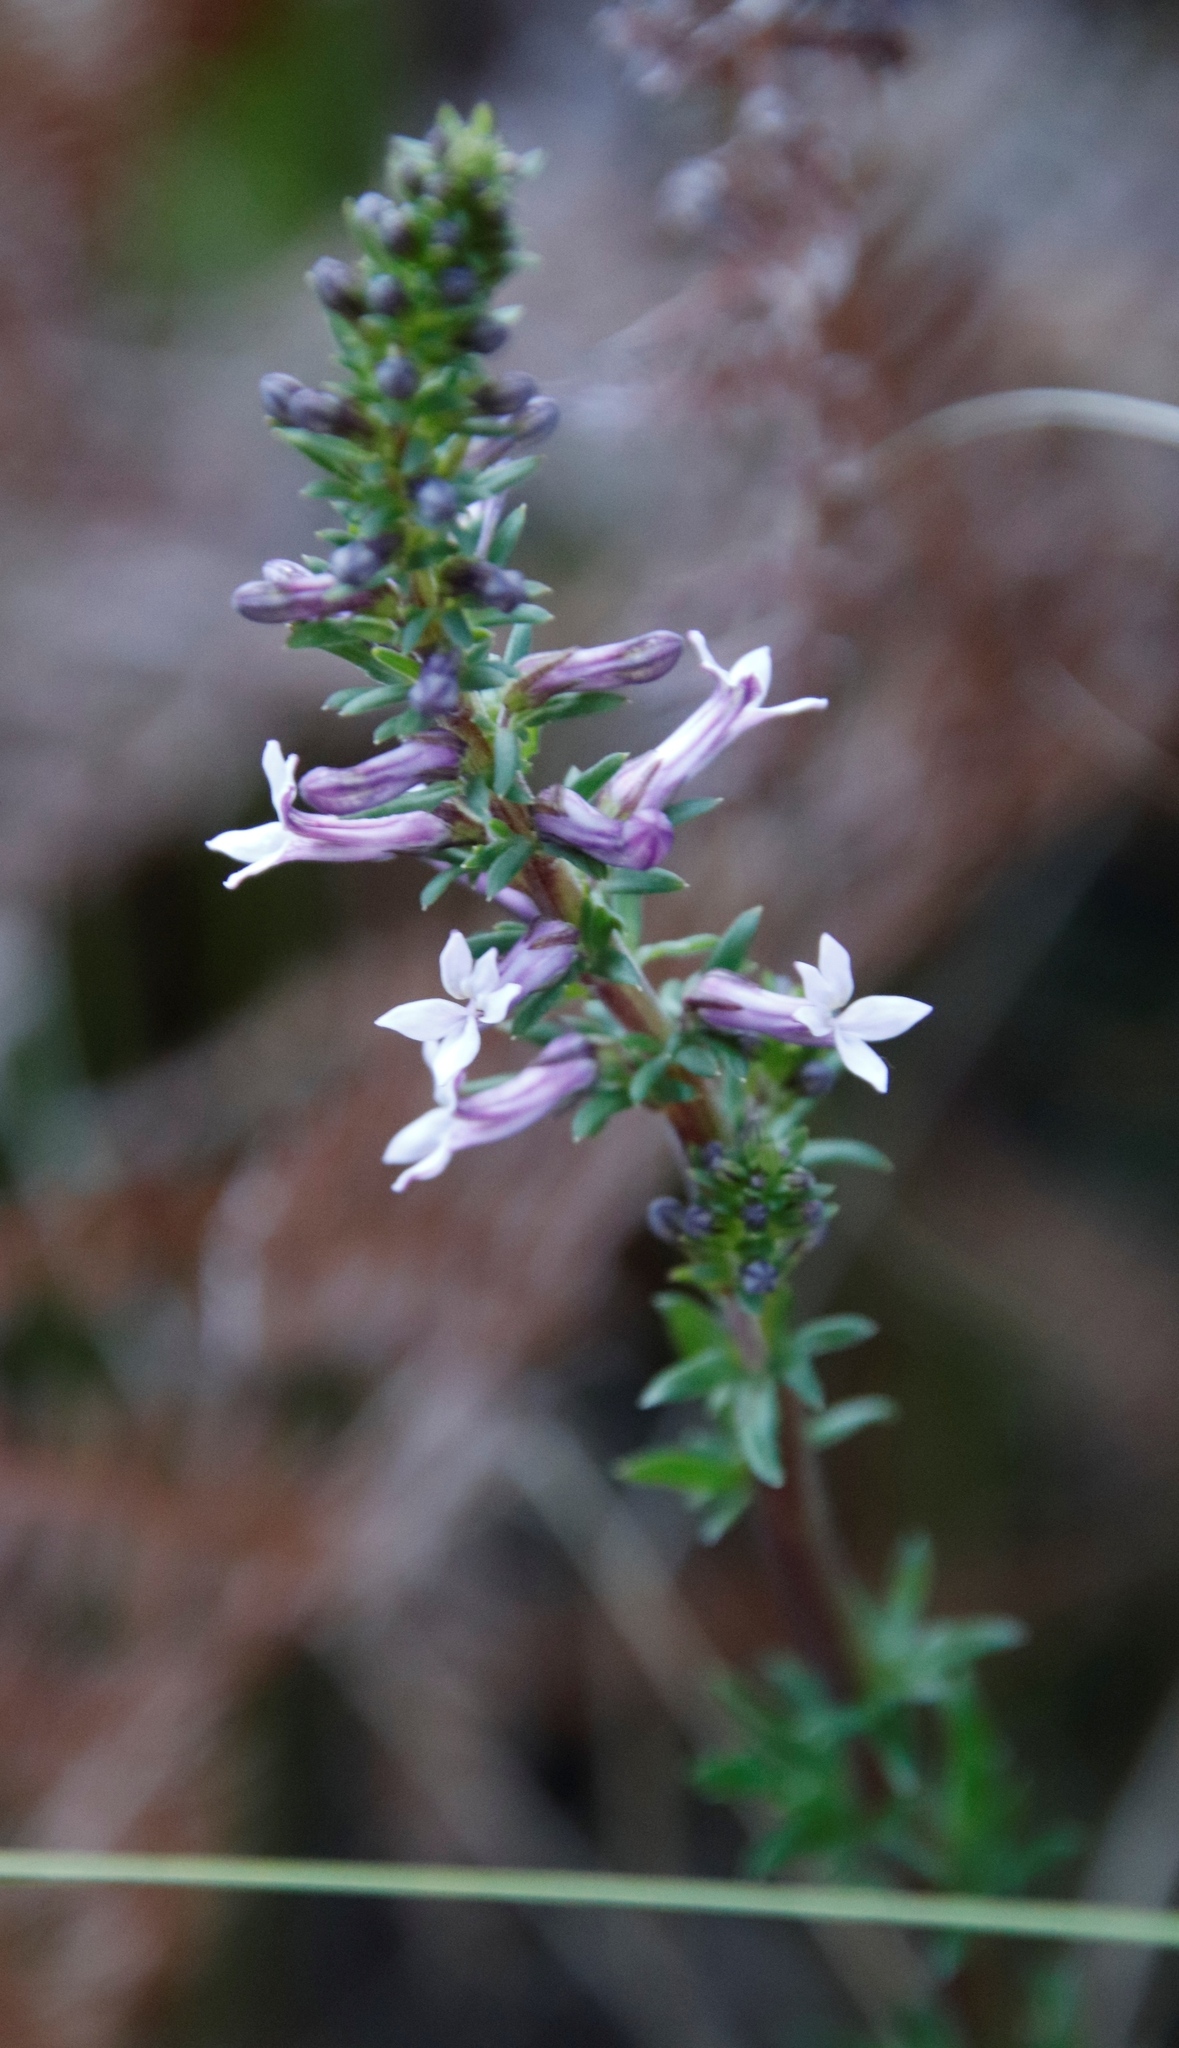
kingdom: Plantae
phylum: Tracheophyta
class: Magnoliopsida
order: Asterales
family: Campanulaceae
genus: Cyphia
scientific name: Cyphia bulbosa
